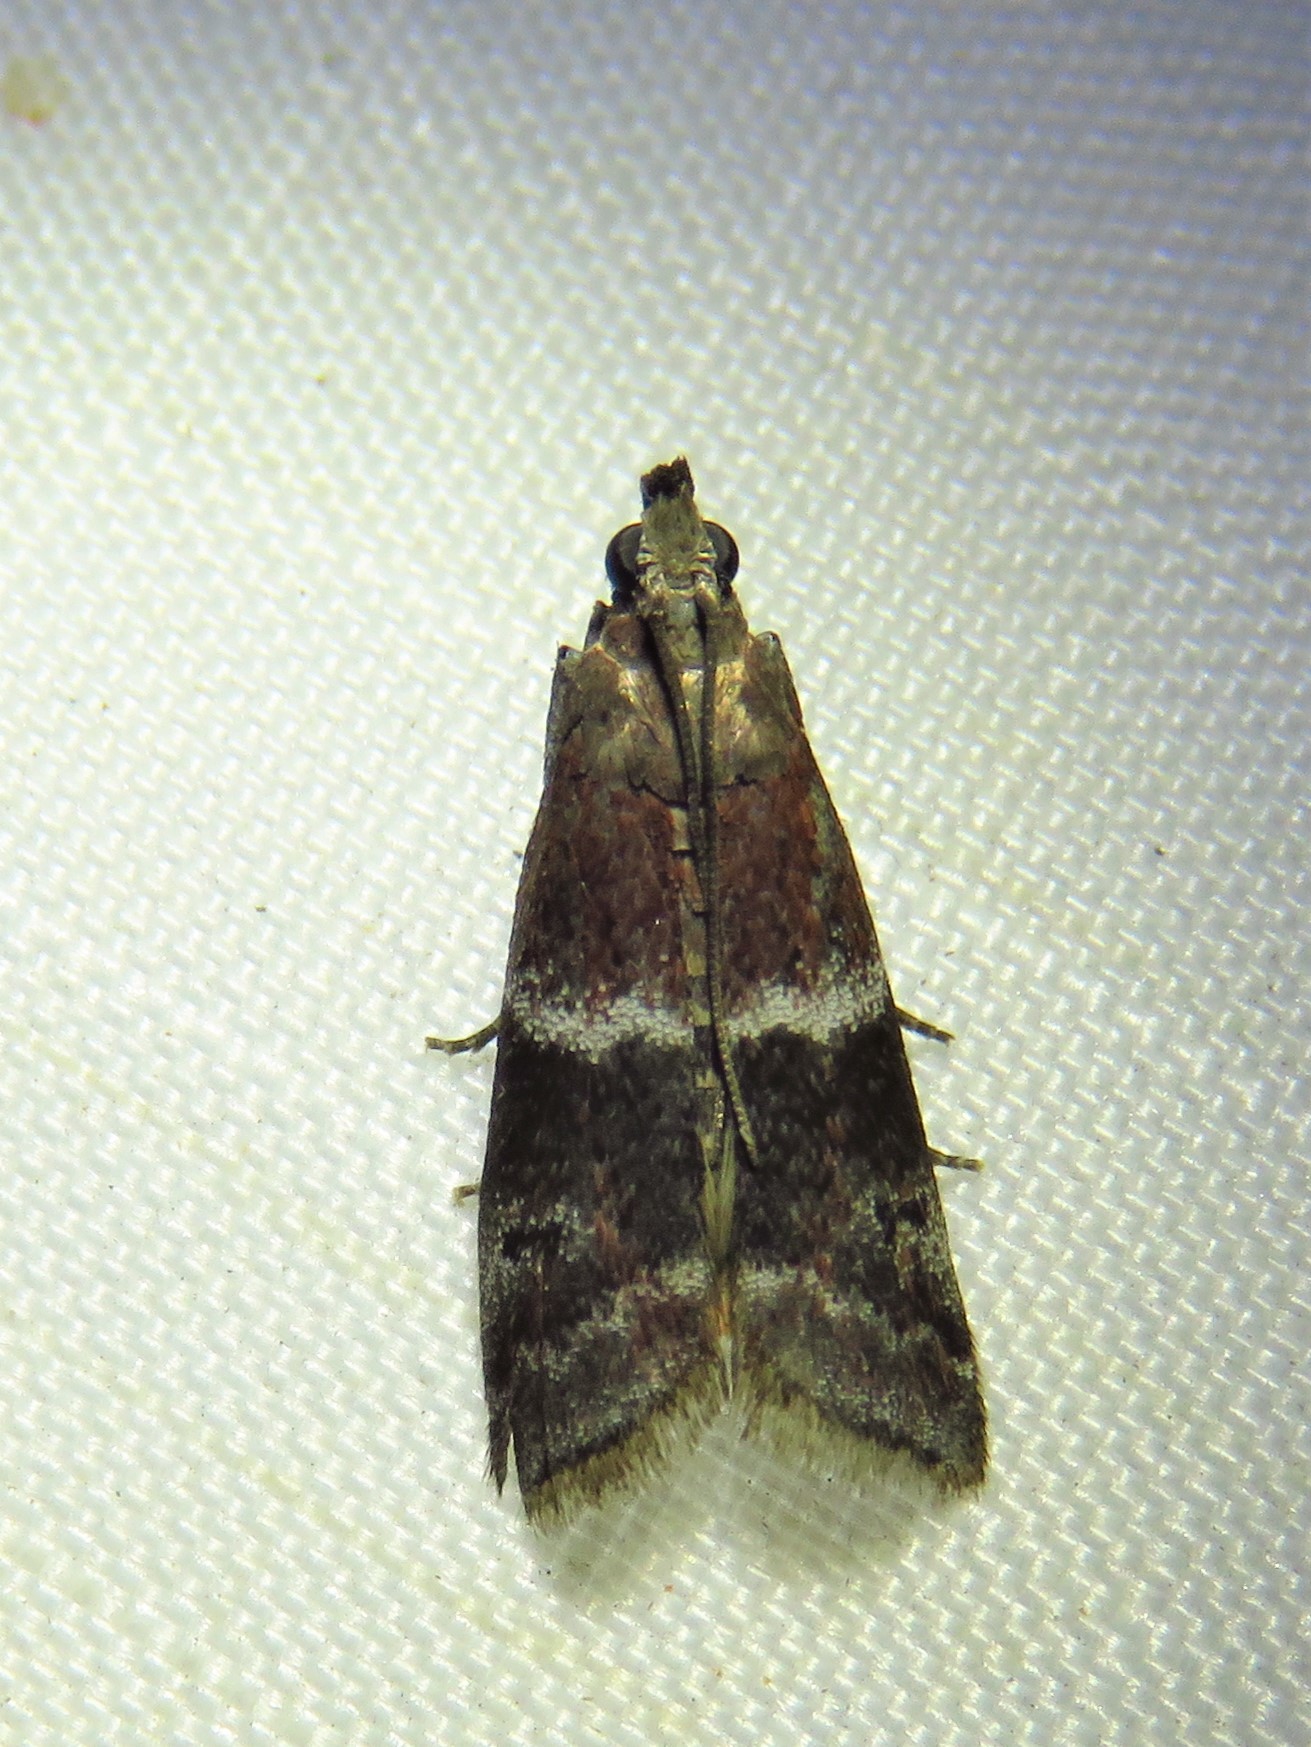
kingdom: Animalia
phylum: Arthropoda
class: Insecta
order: Lepidoptera
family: Pyralidae
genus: Moodna
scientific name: Moodna ostrinella
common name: Darker moodna moth
